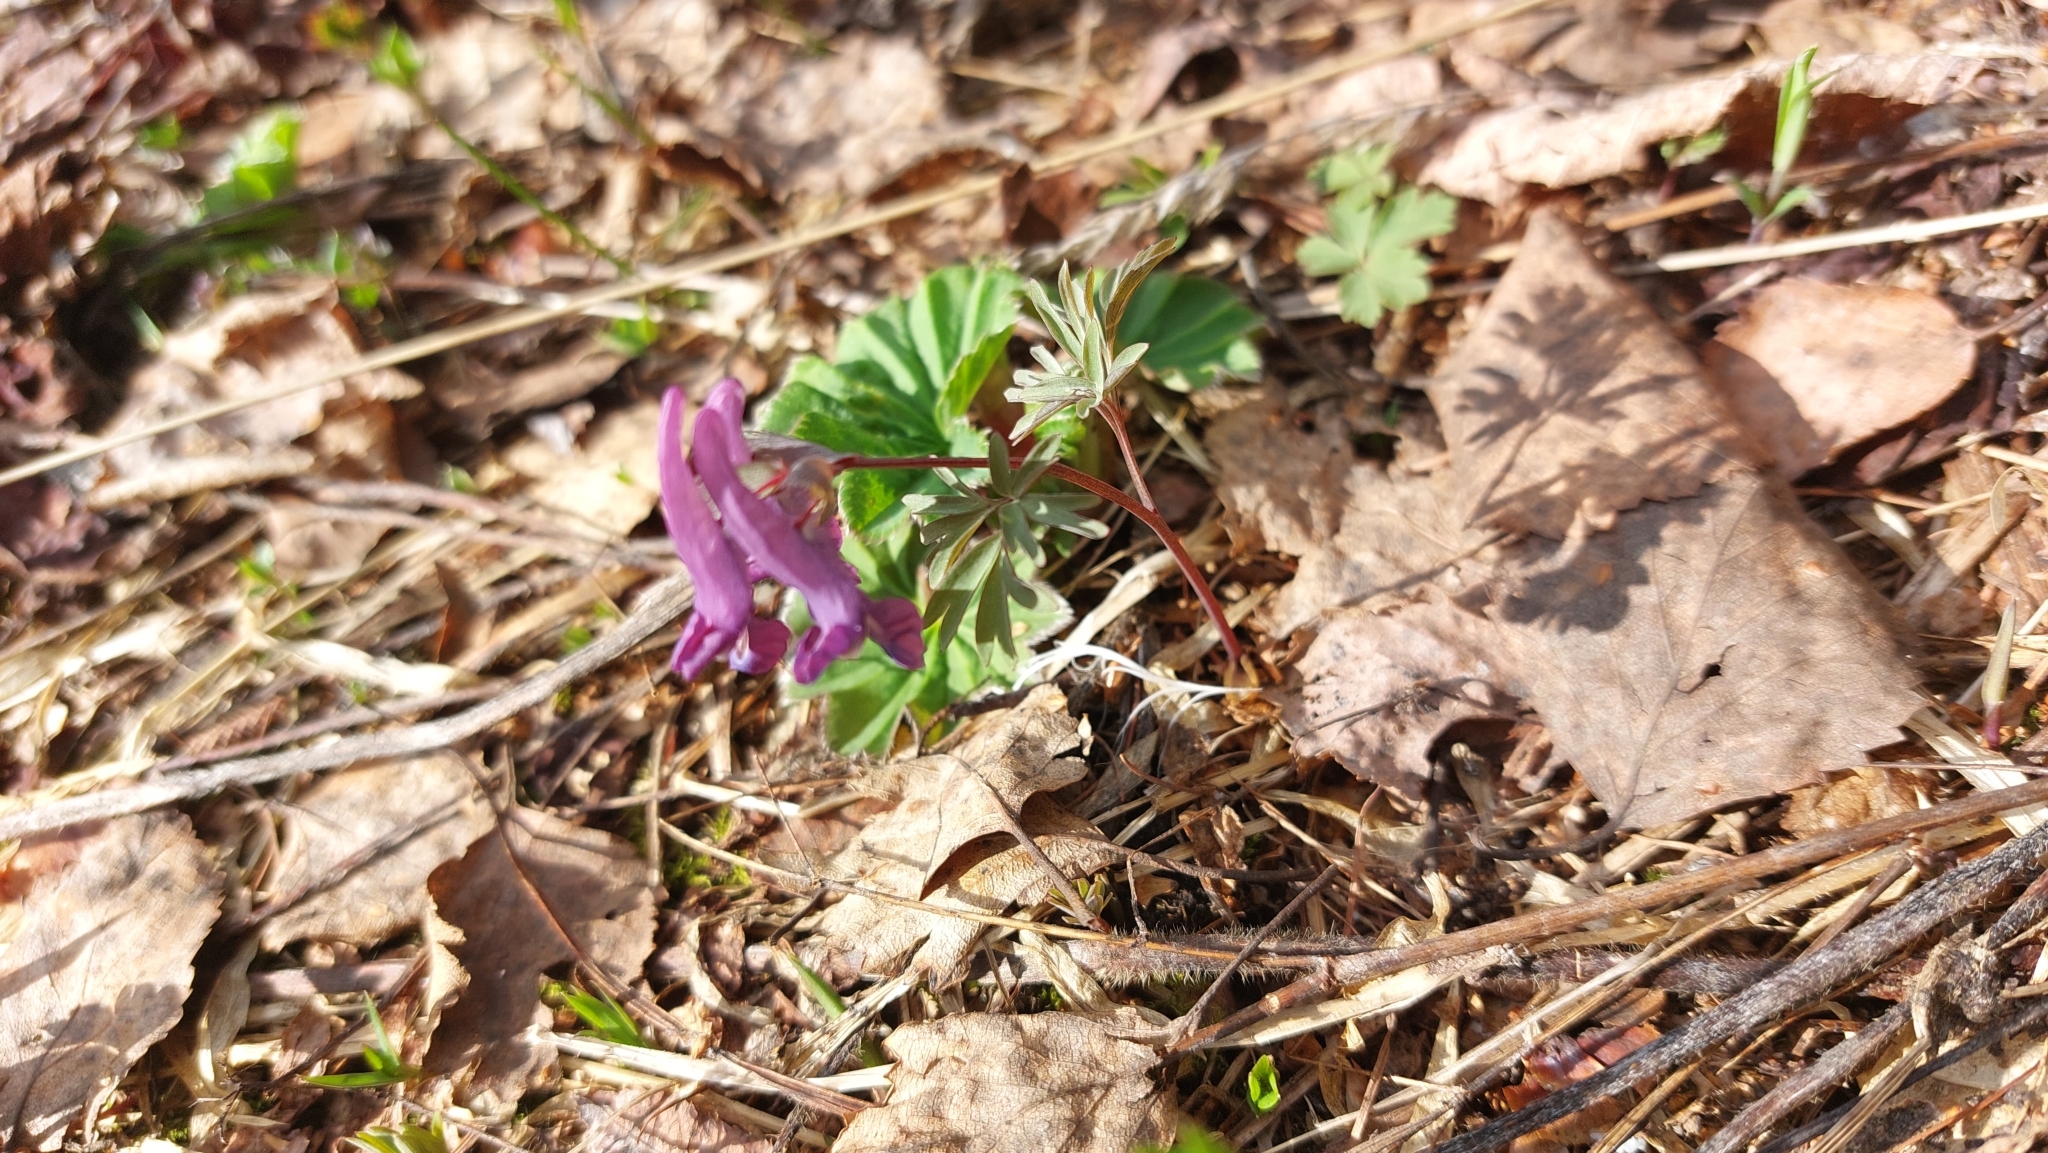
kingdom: Plantae
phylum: Tracheophyta
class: Magnoliopsida
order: Ranunculales
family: Papaveraceae
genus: Corydalis
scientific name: Corydalis solida
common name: Bird-in-a-bush
